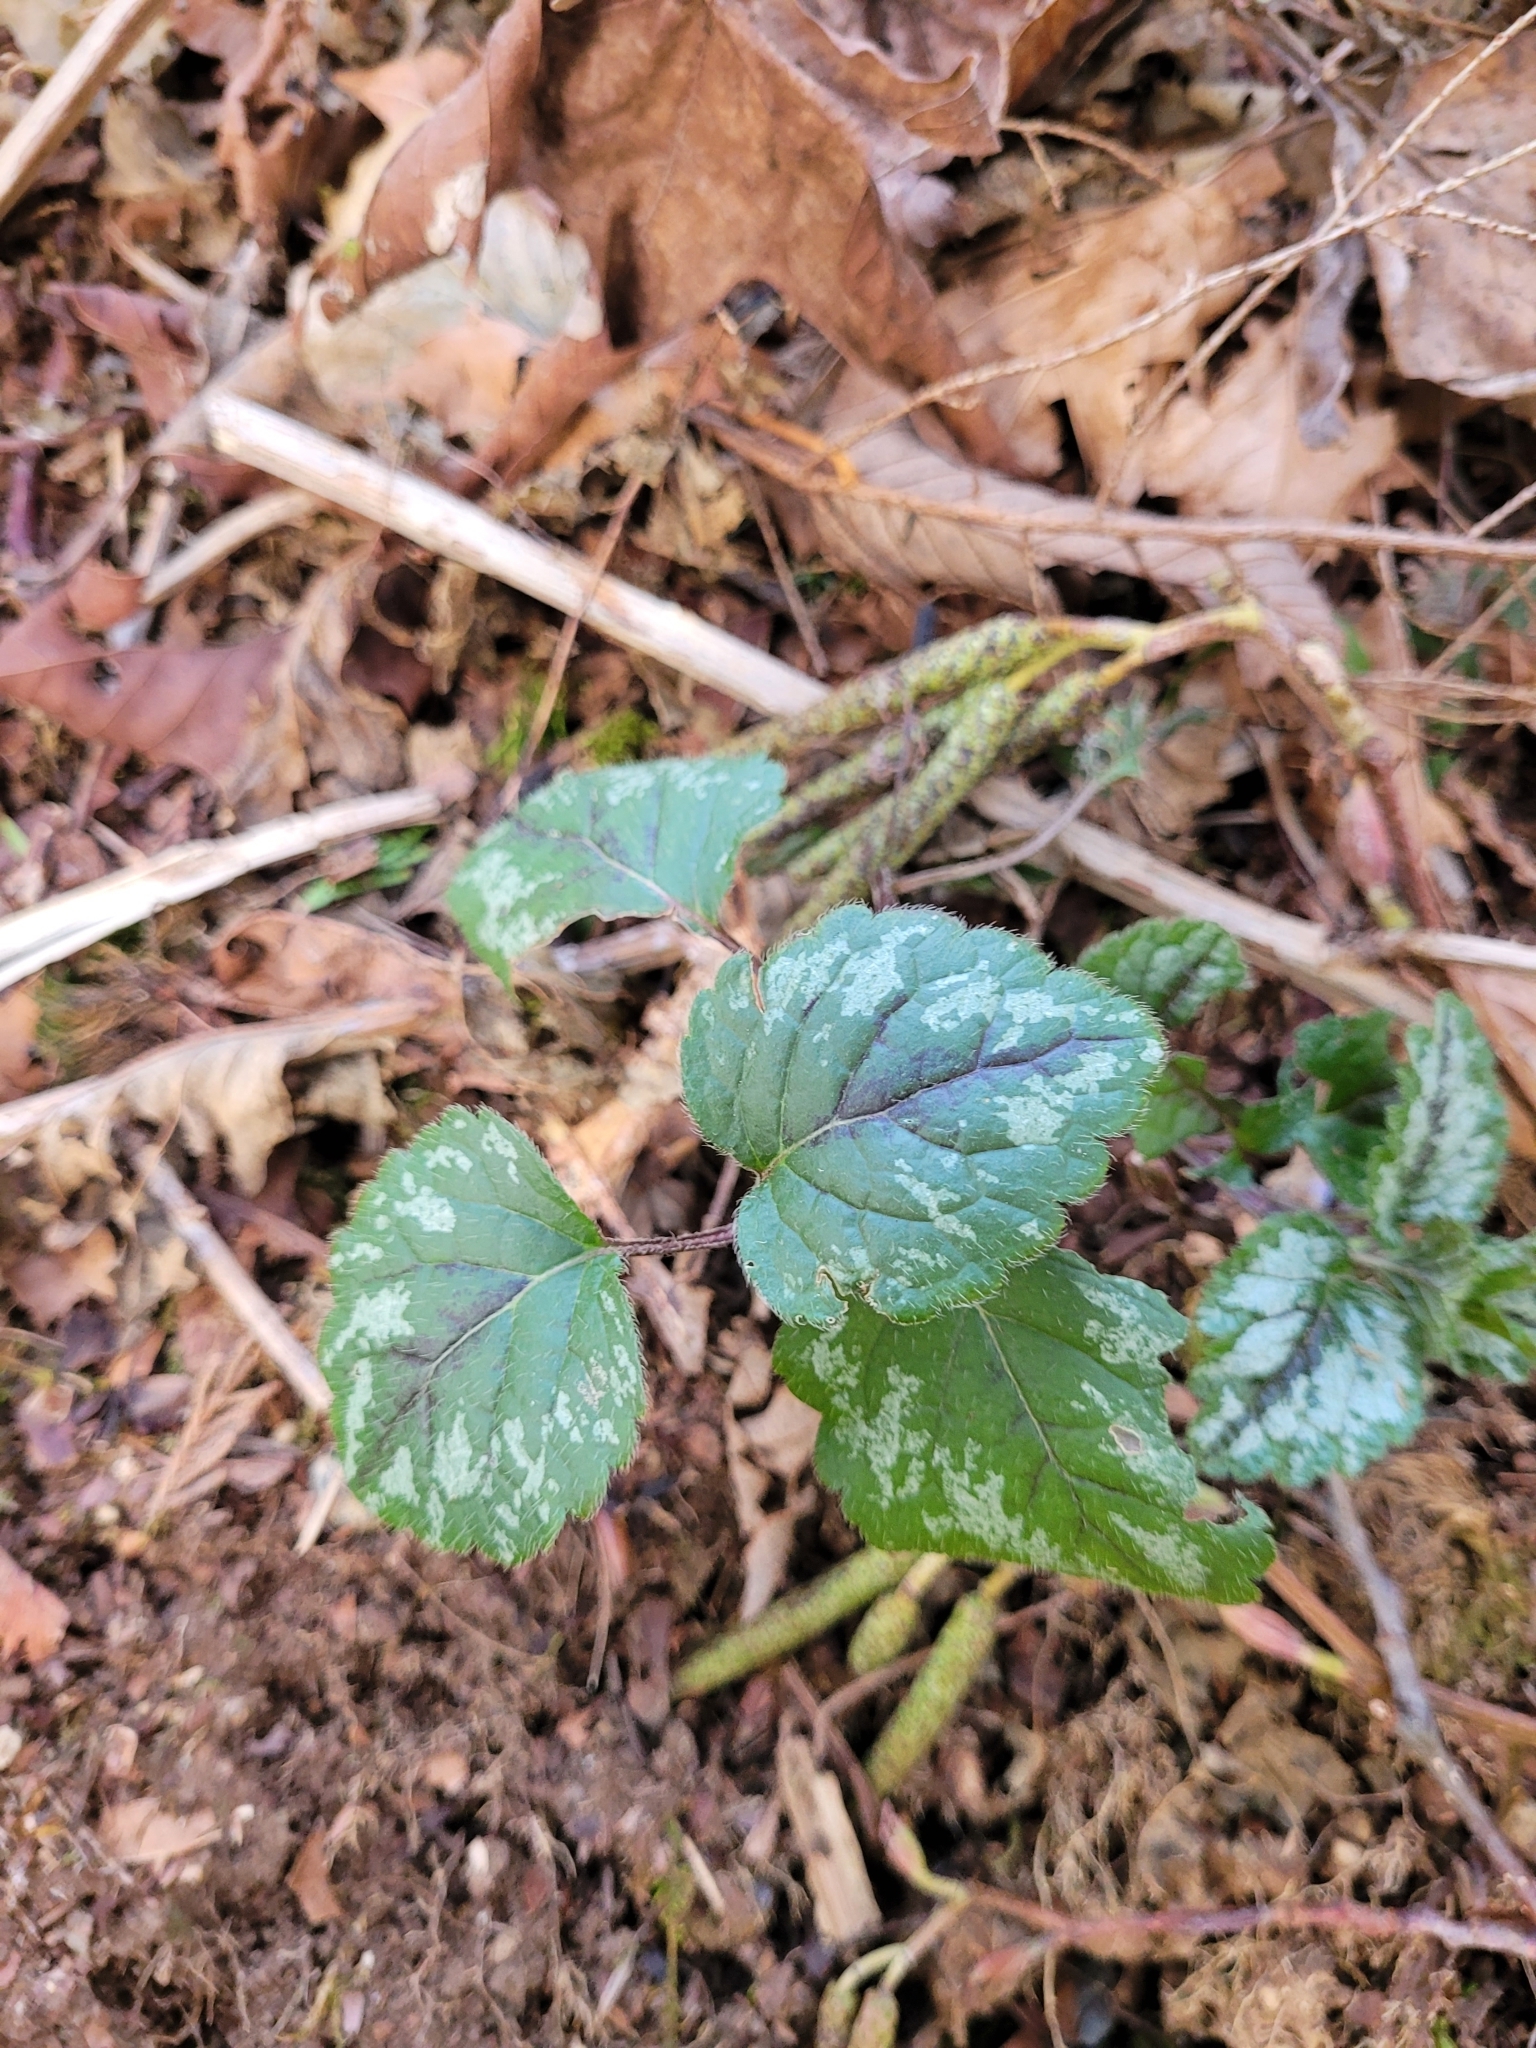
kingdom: Plantae
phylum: Tracheophyta
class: Magnoliopsida
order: Lamiales
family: Lamiaceae
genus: Lamium
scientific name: Lamium galeobdolon
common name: Yellow archangel
